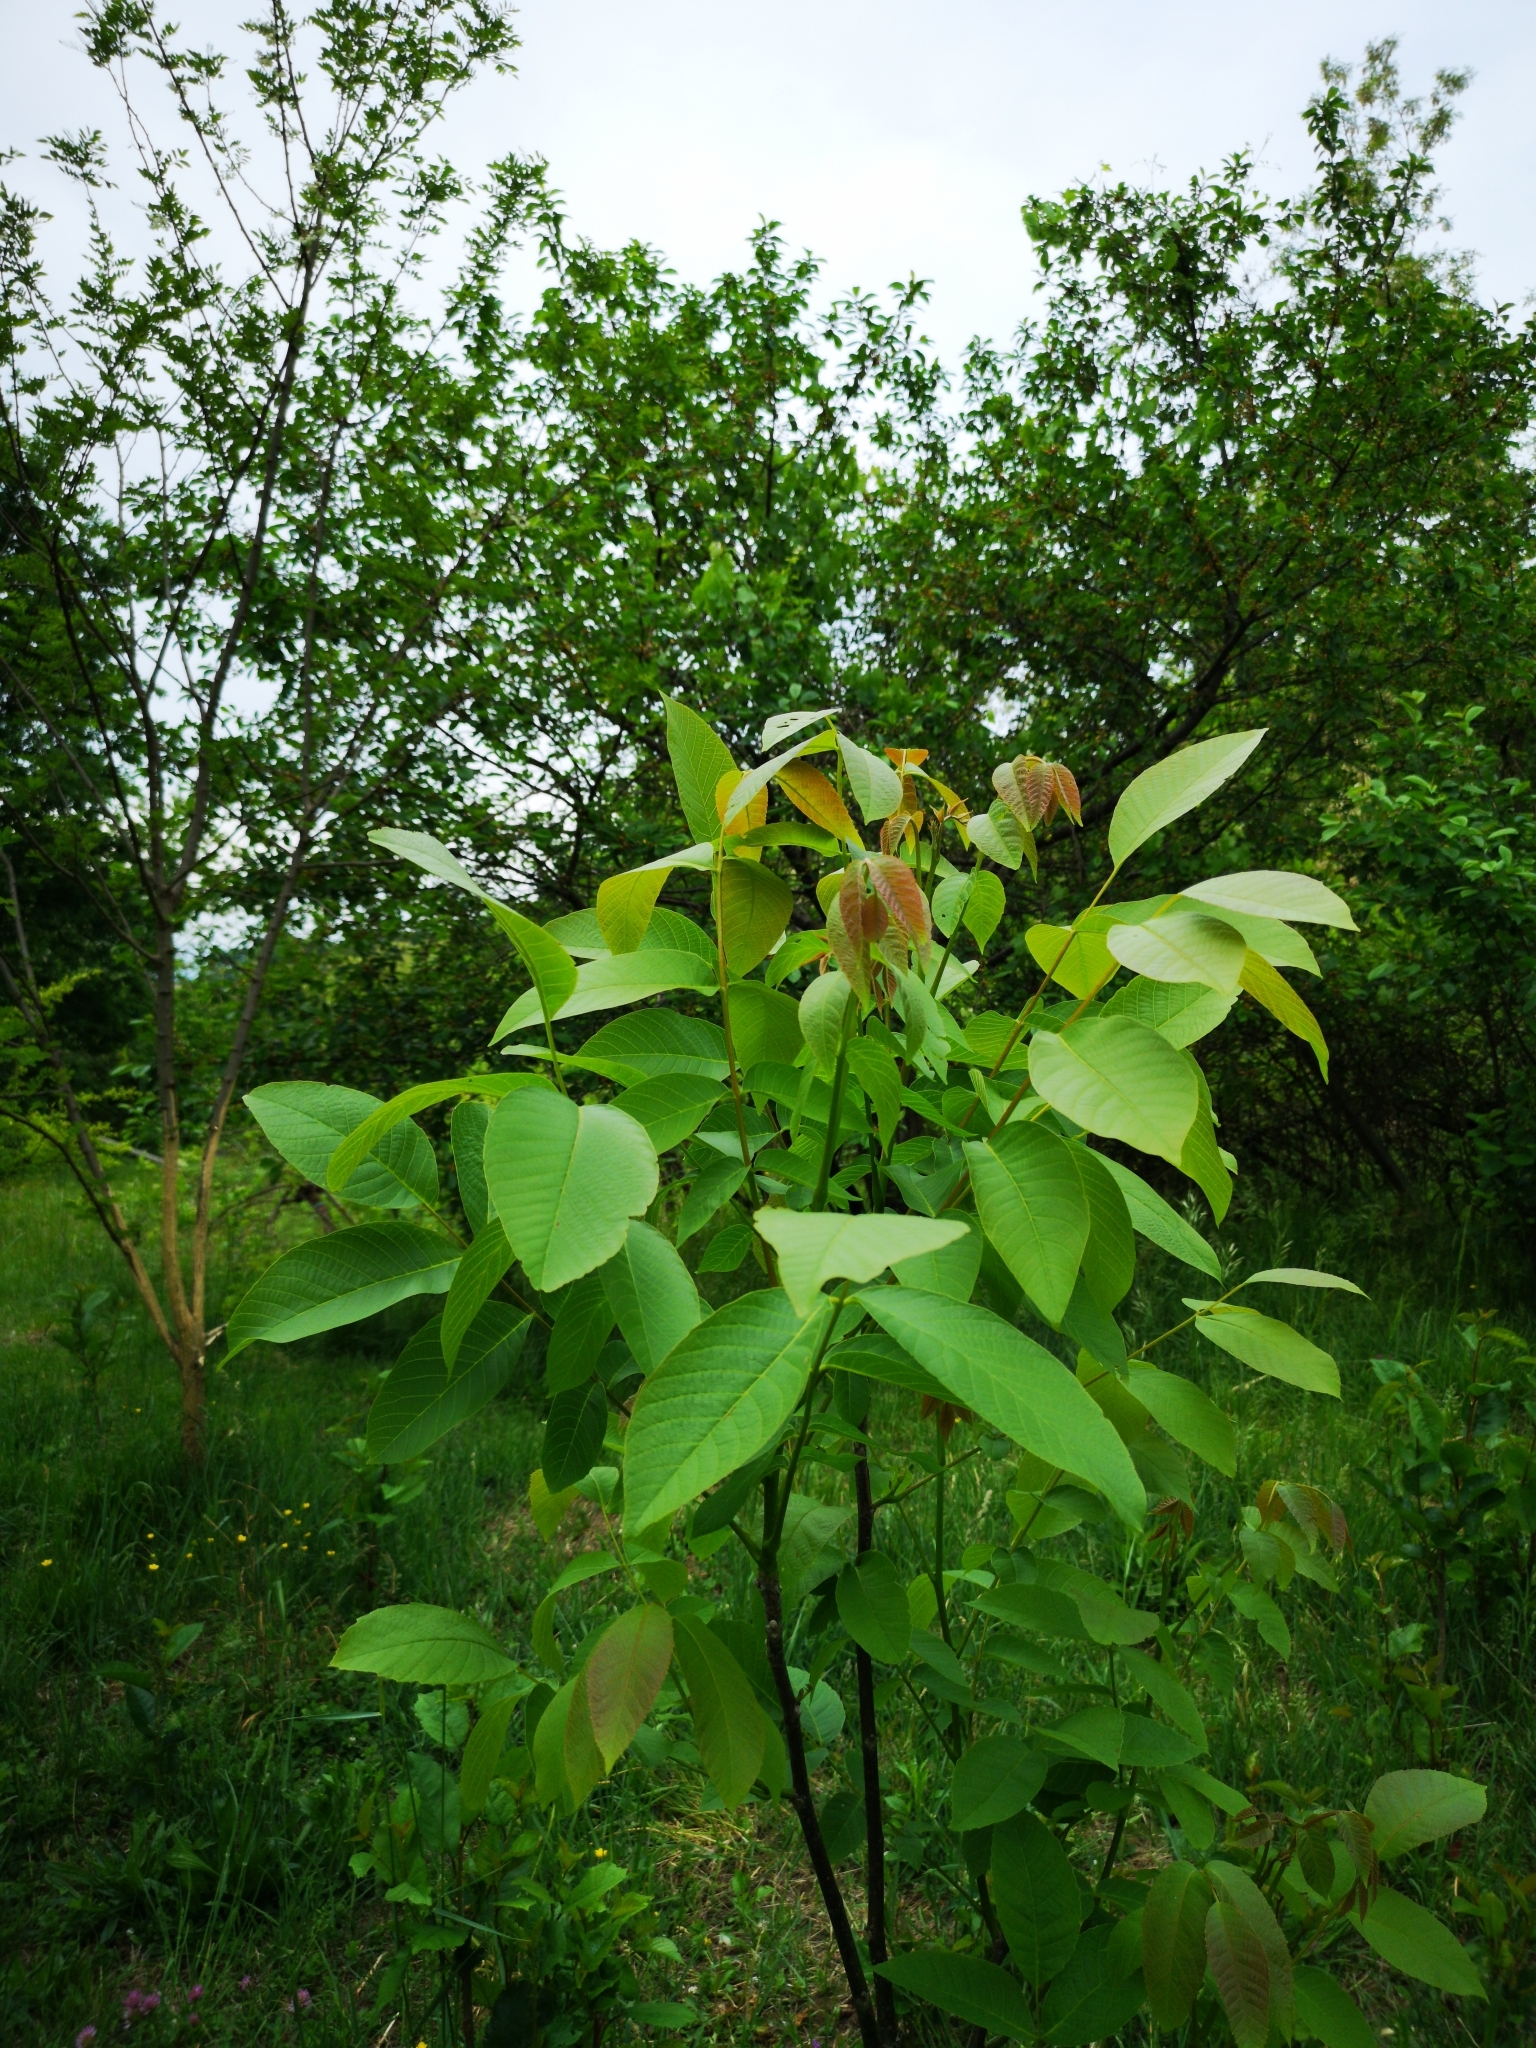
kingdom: Plantae
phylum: Tracheophyta
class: Magnoliopsida
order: Fagales
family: Juglandaceae
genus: Juglans
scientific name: Juglans regia
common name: Walnut
